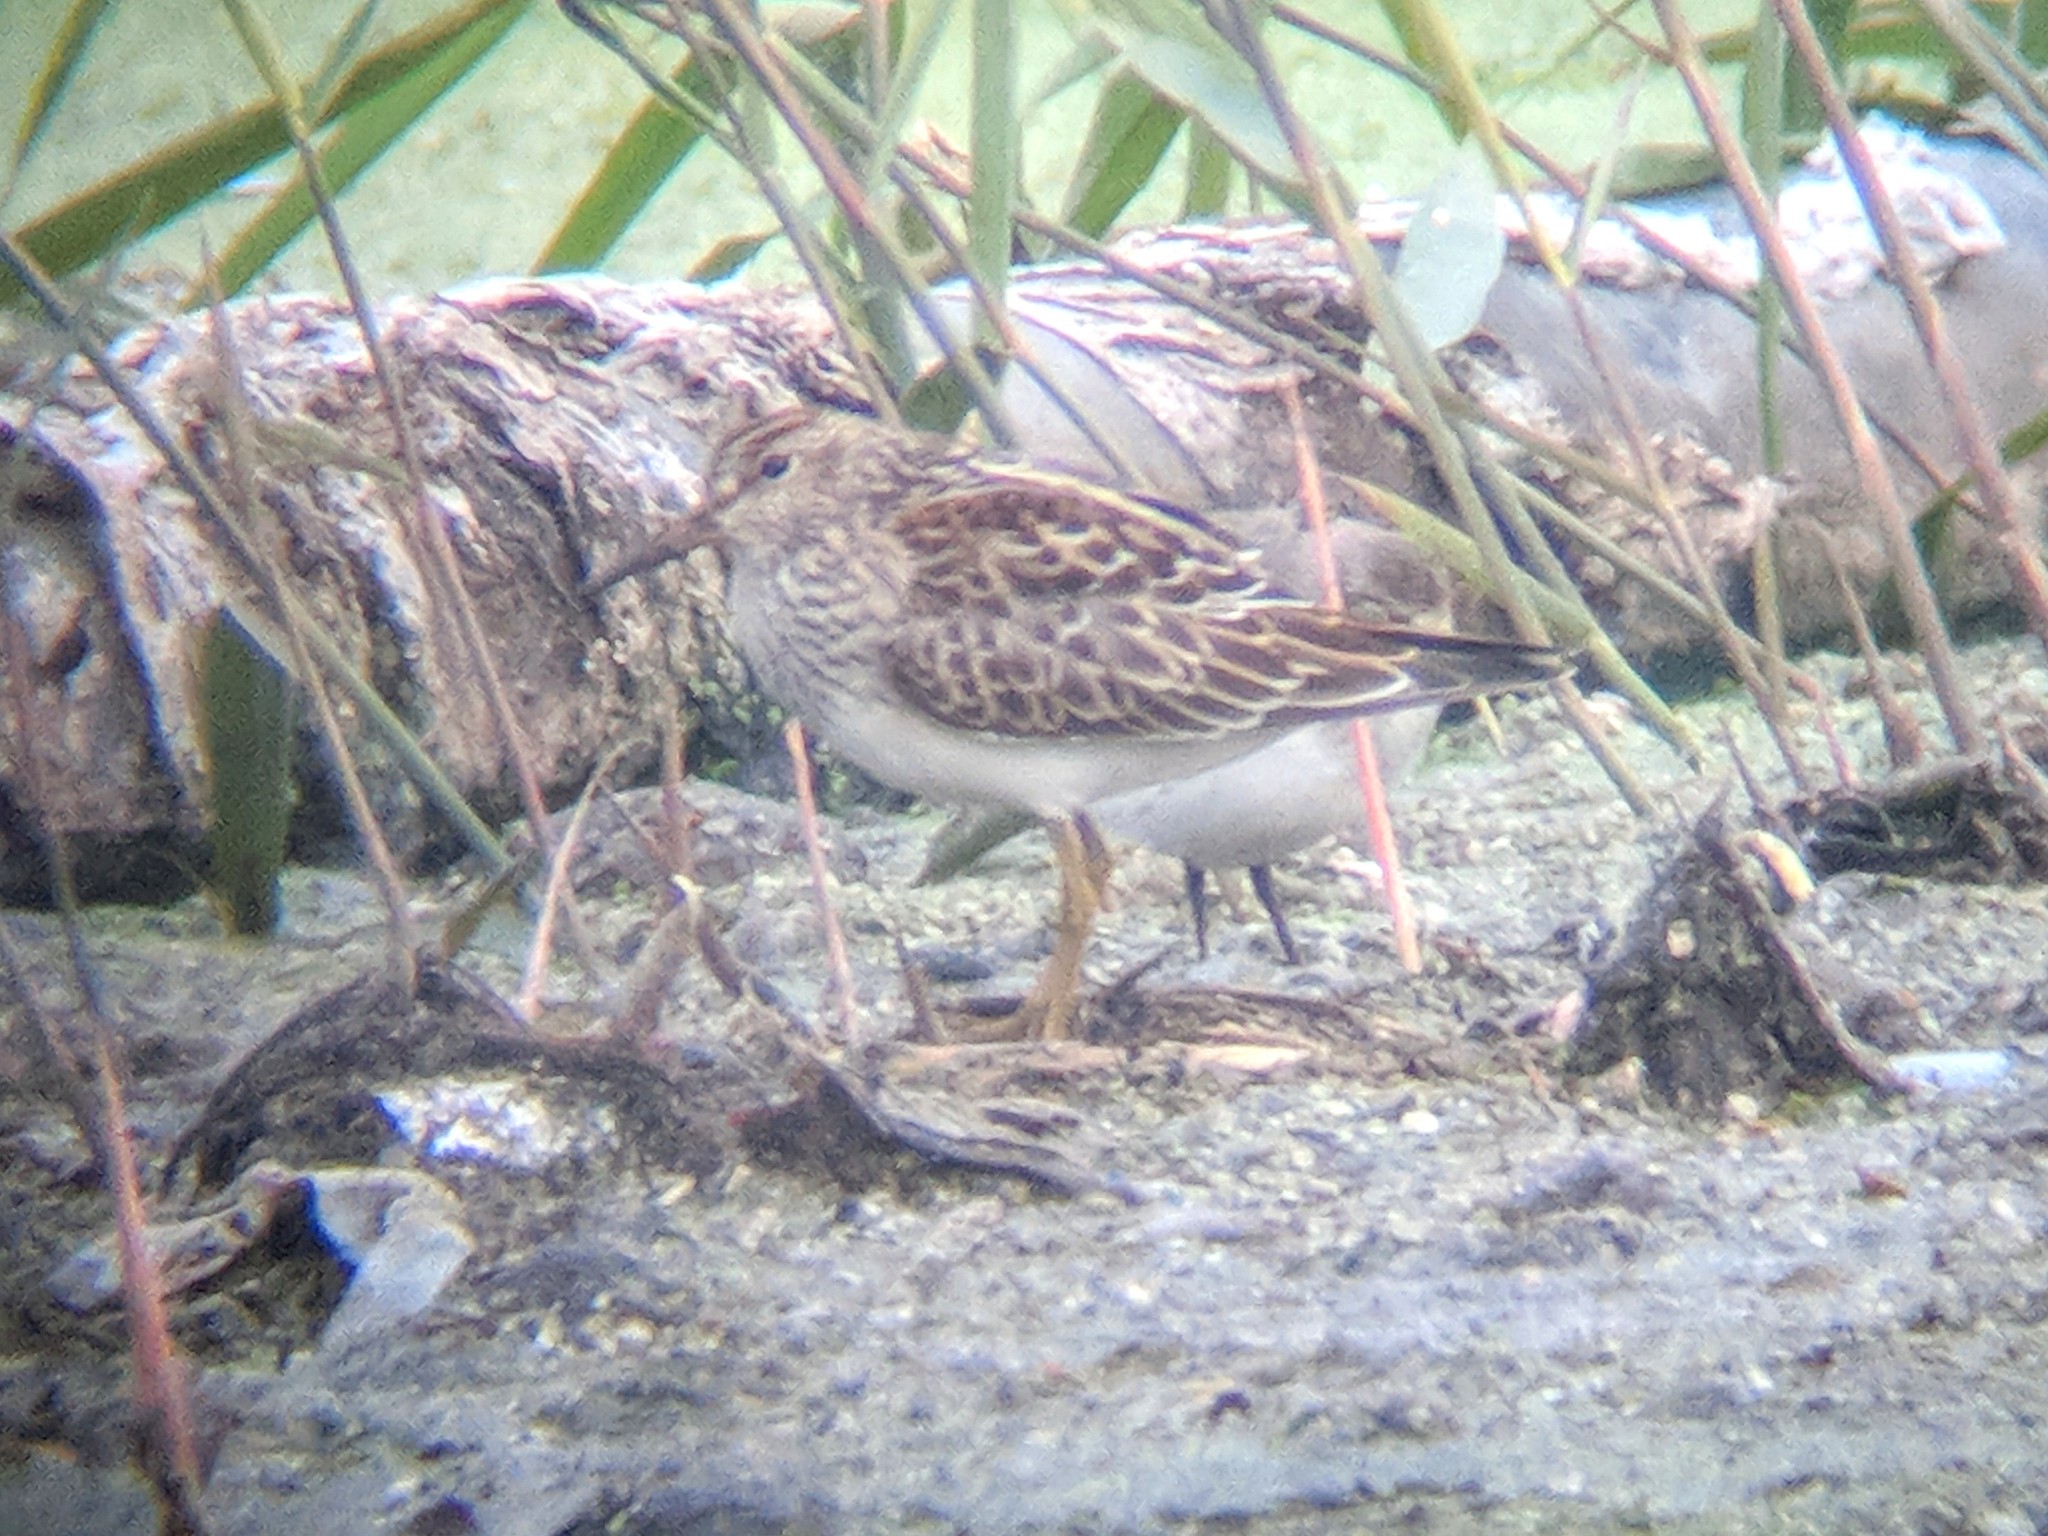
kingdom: Animalia
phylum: Chordata
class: Aves
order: Charadriiformes
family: Scolopacidae
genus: Calidris
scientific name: Calidris melanotos
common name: Pectoral sandpiper
